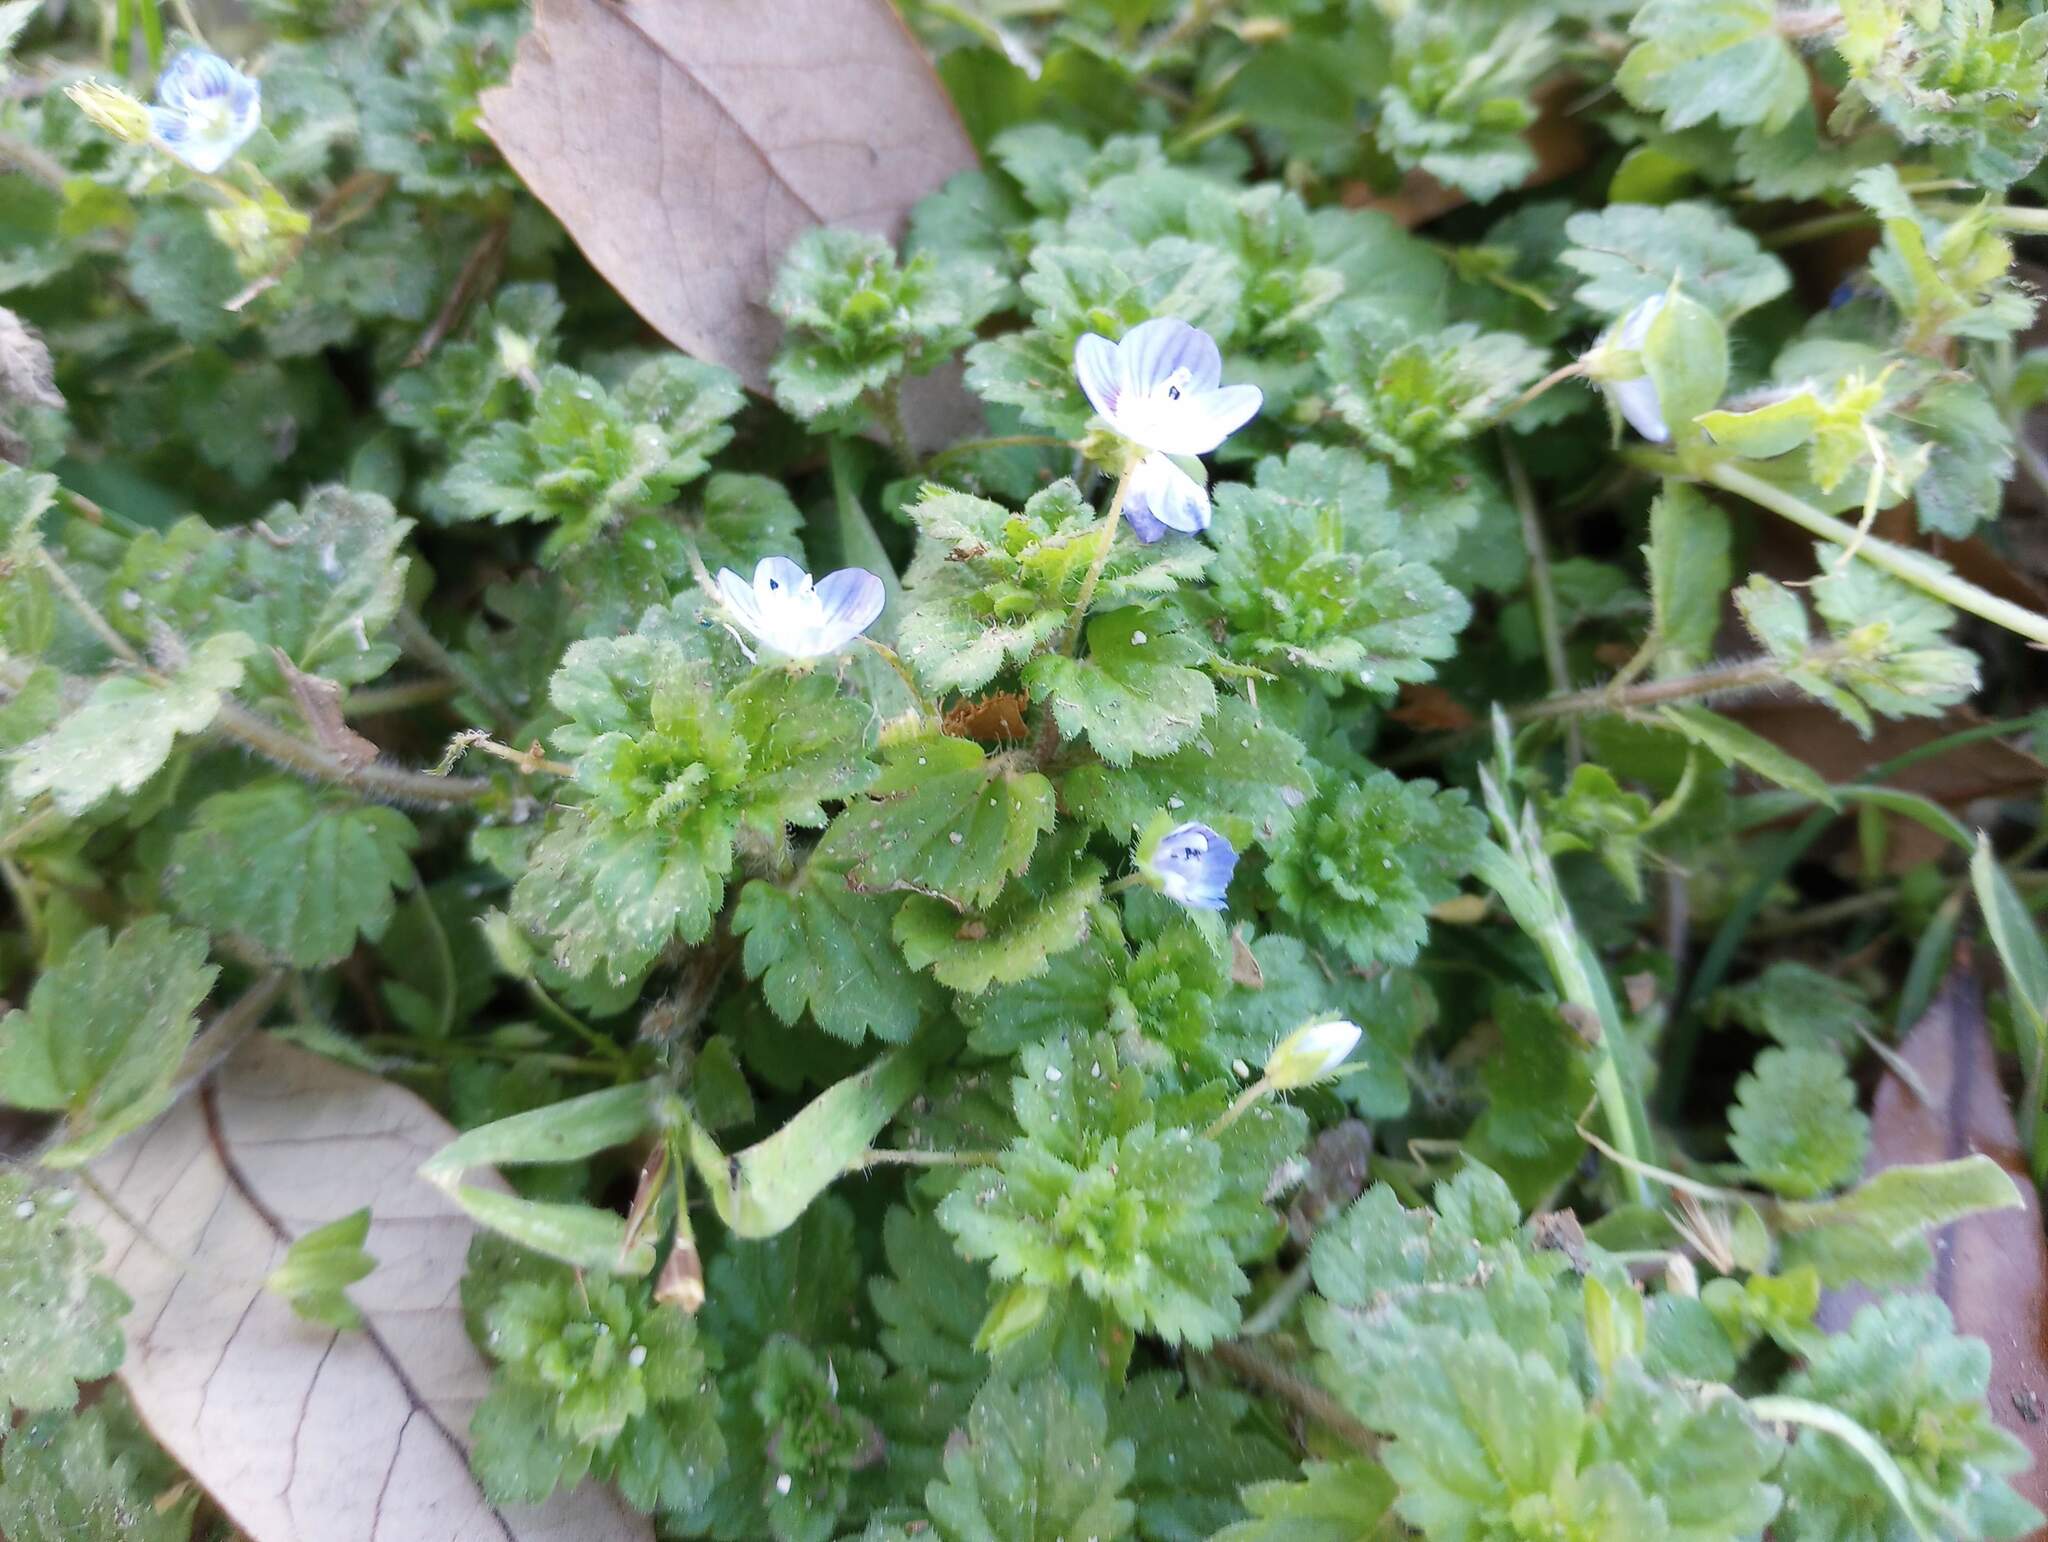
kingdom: Plantae
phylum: Tracheophyta
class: Magnoliopsida
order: Lamiales
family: Plantaginaceae
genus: Veronica
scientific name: Veronica persica
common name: Common field-speedwell
